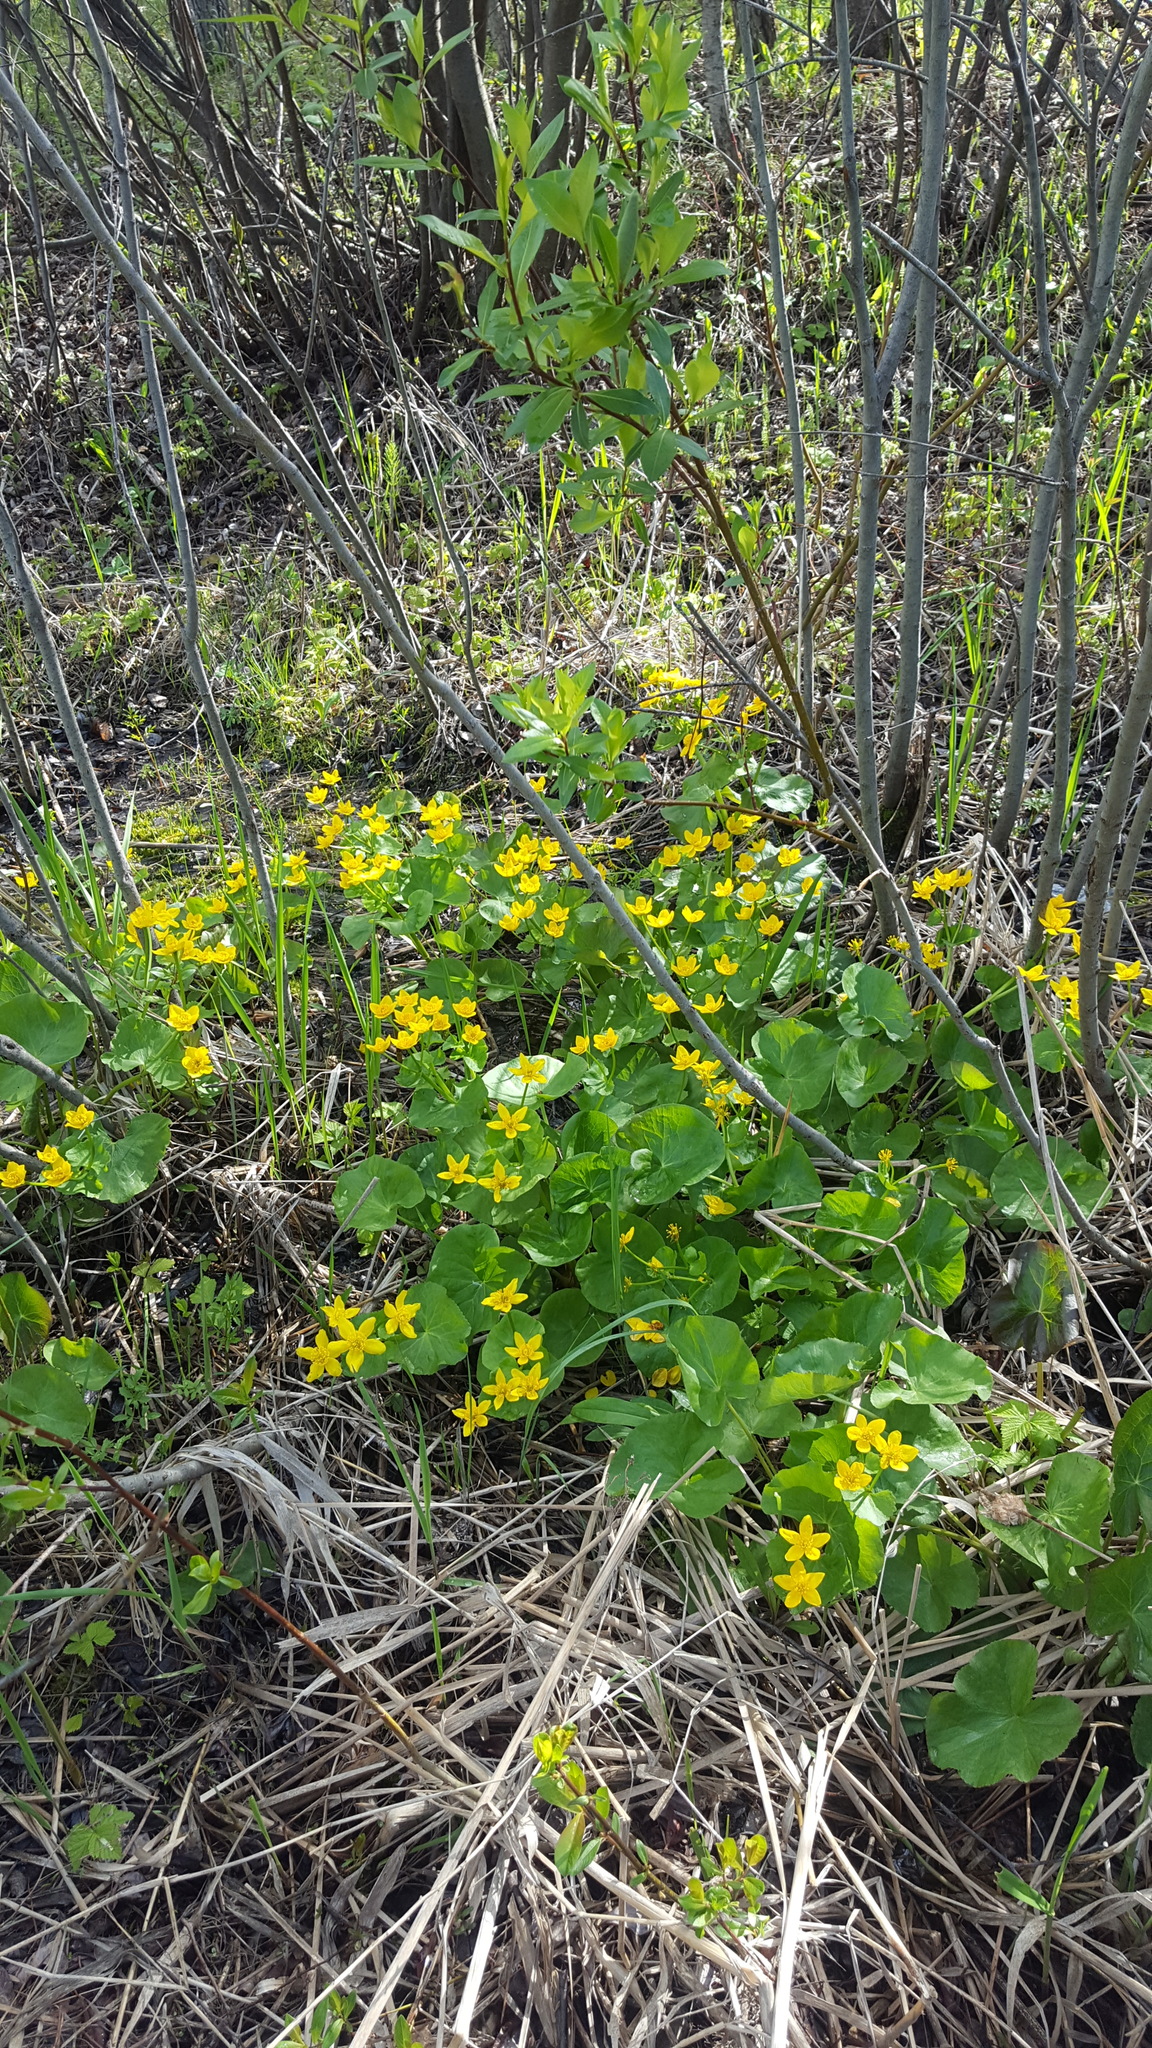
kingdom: Plantae
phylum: Tracheophyta
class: Magnoliopsida
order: Ranunculales
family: Ranunculaceae
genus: Caltha
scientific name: Caltha palustris
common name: Marsh marigold
